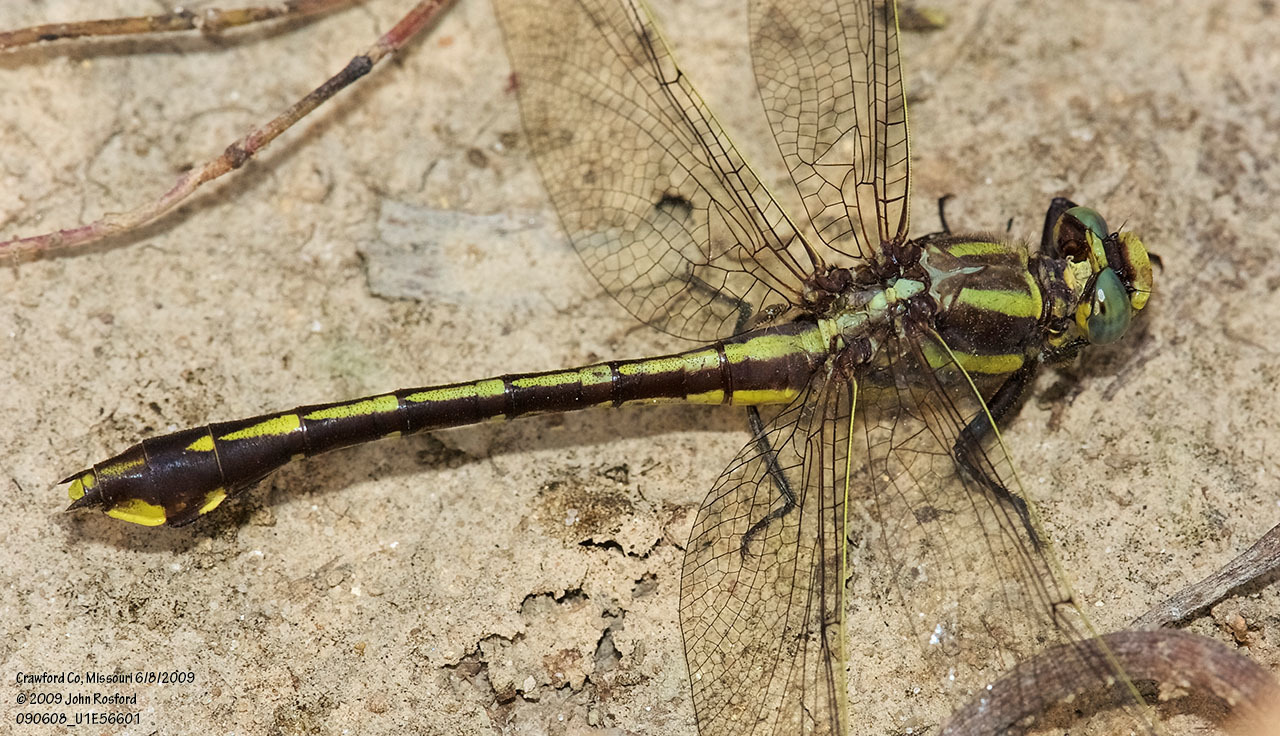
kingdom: Animalia
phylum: Arthropoda
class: Insecta
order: Odonata
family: Gomphidae
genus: Gomphurus
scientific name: Gomphurus ozarkensis
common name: Ozark clubtail
